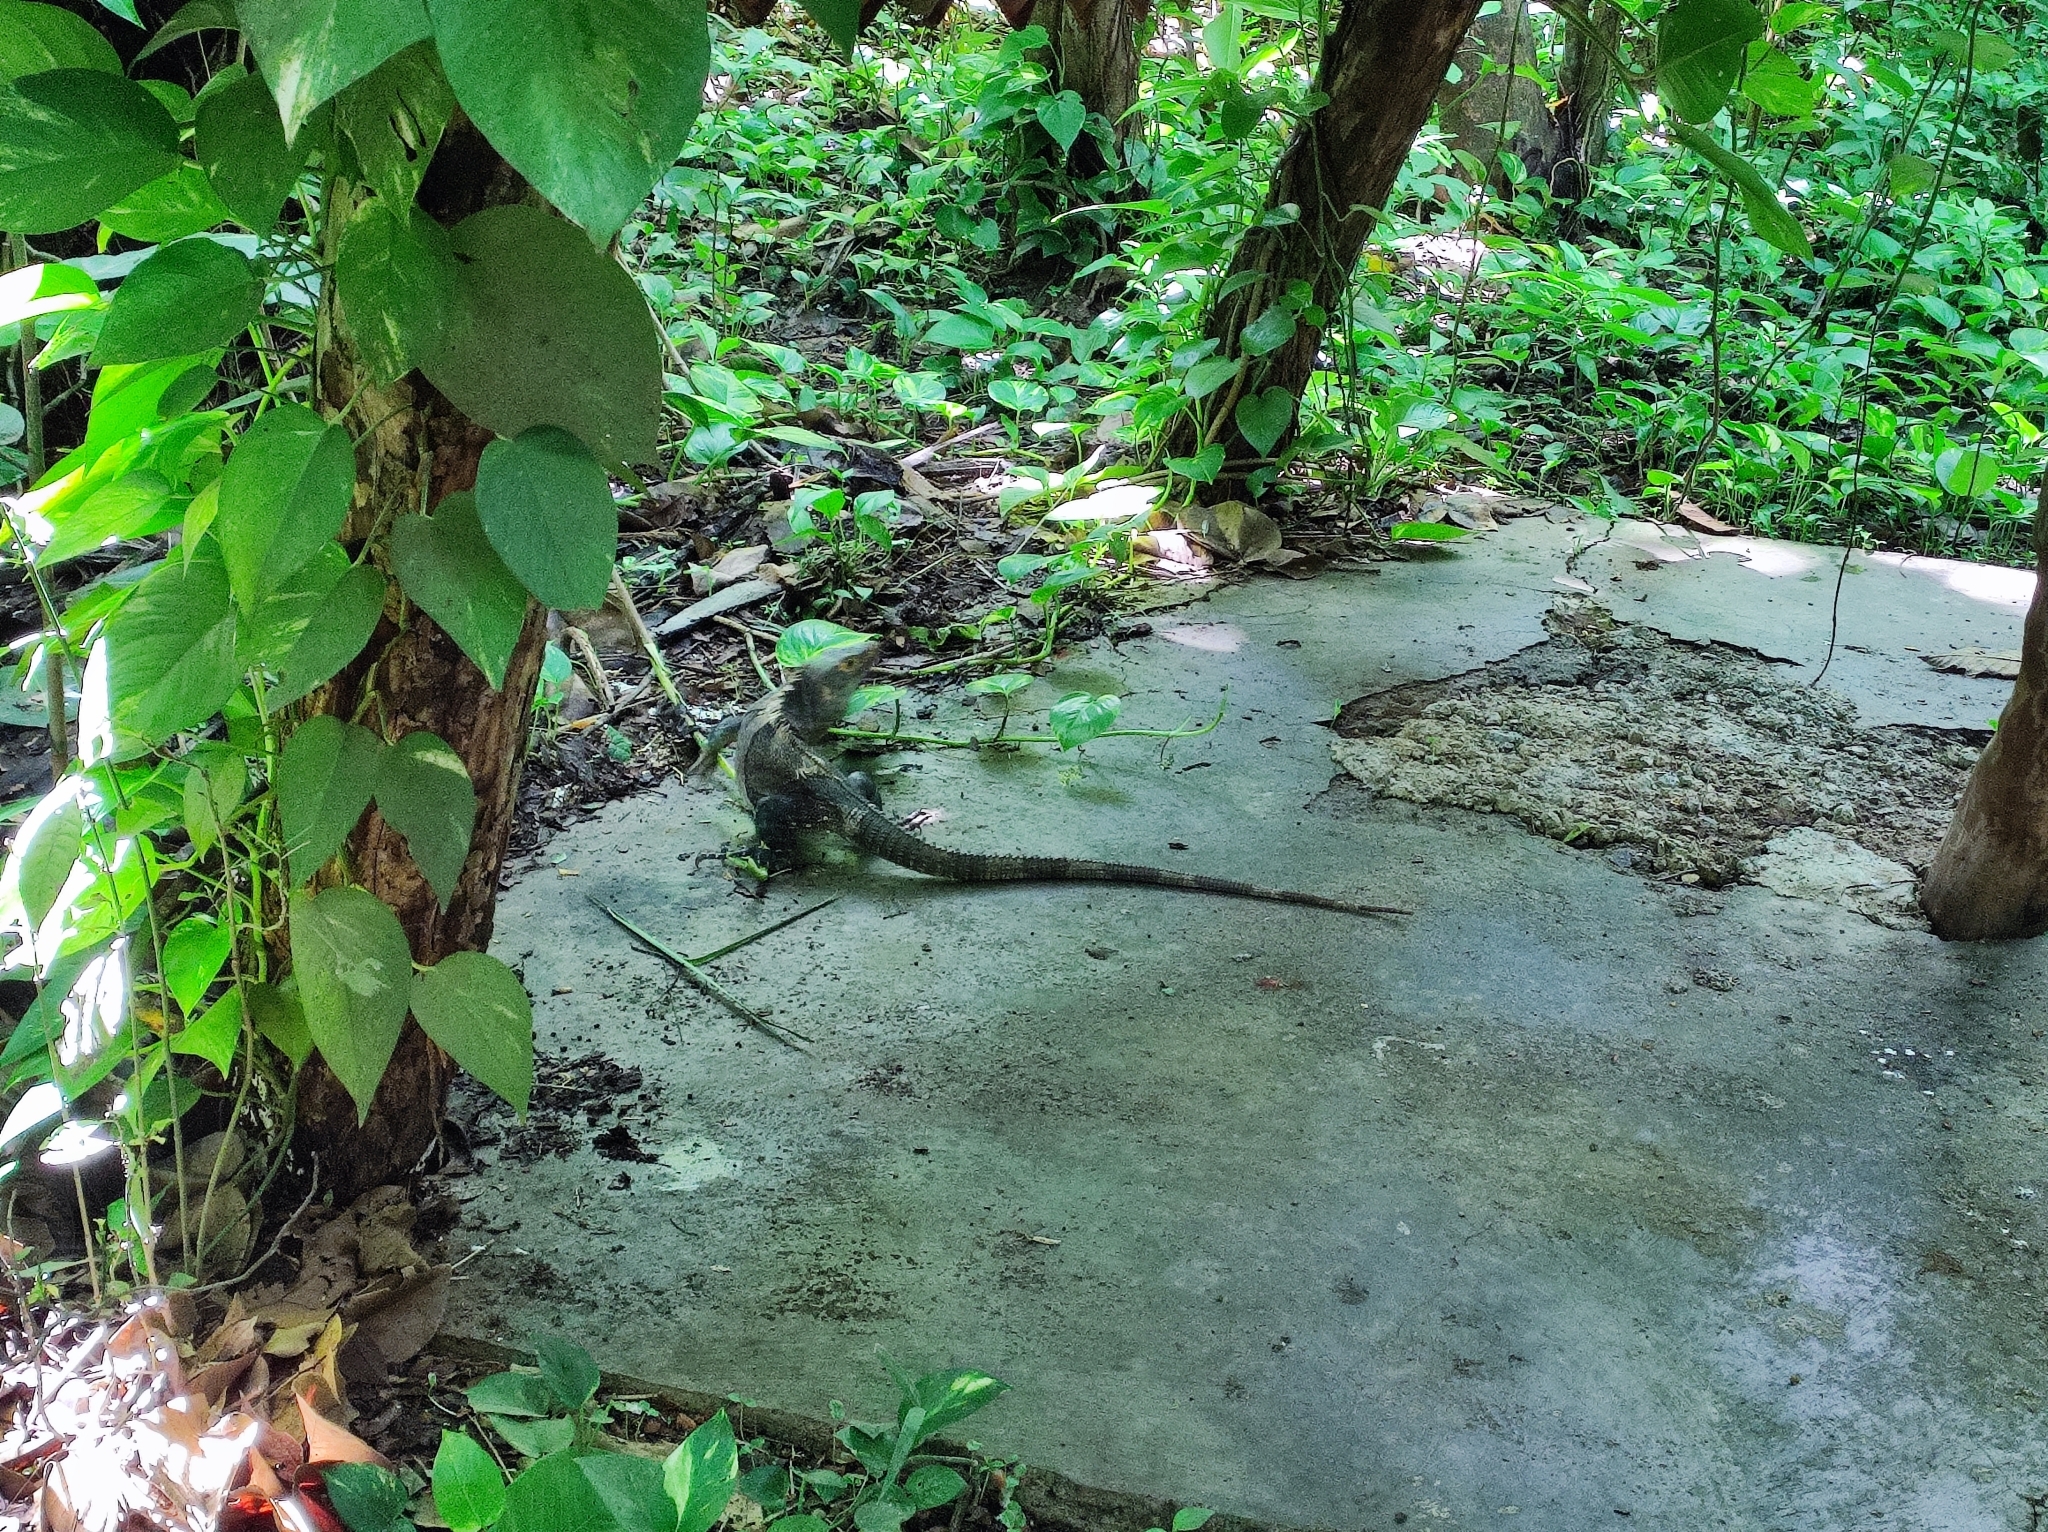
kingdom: Animalia
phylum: Chordata
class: Squamata
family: Iguanidae
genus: Ctenosaura
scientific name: Ctenosaura similis
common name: Black spiny-tailed iguana
